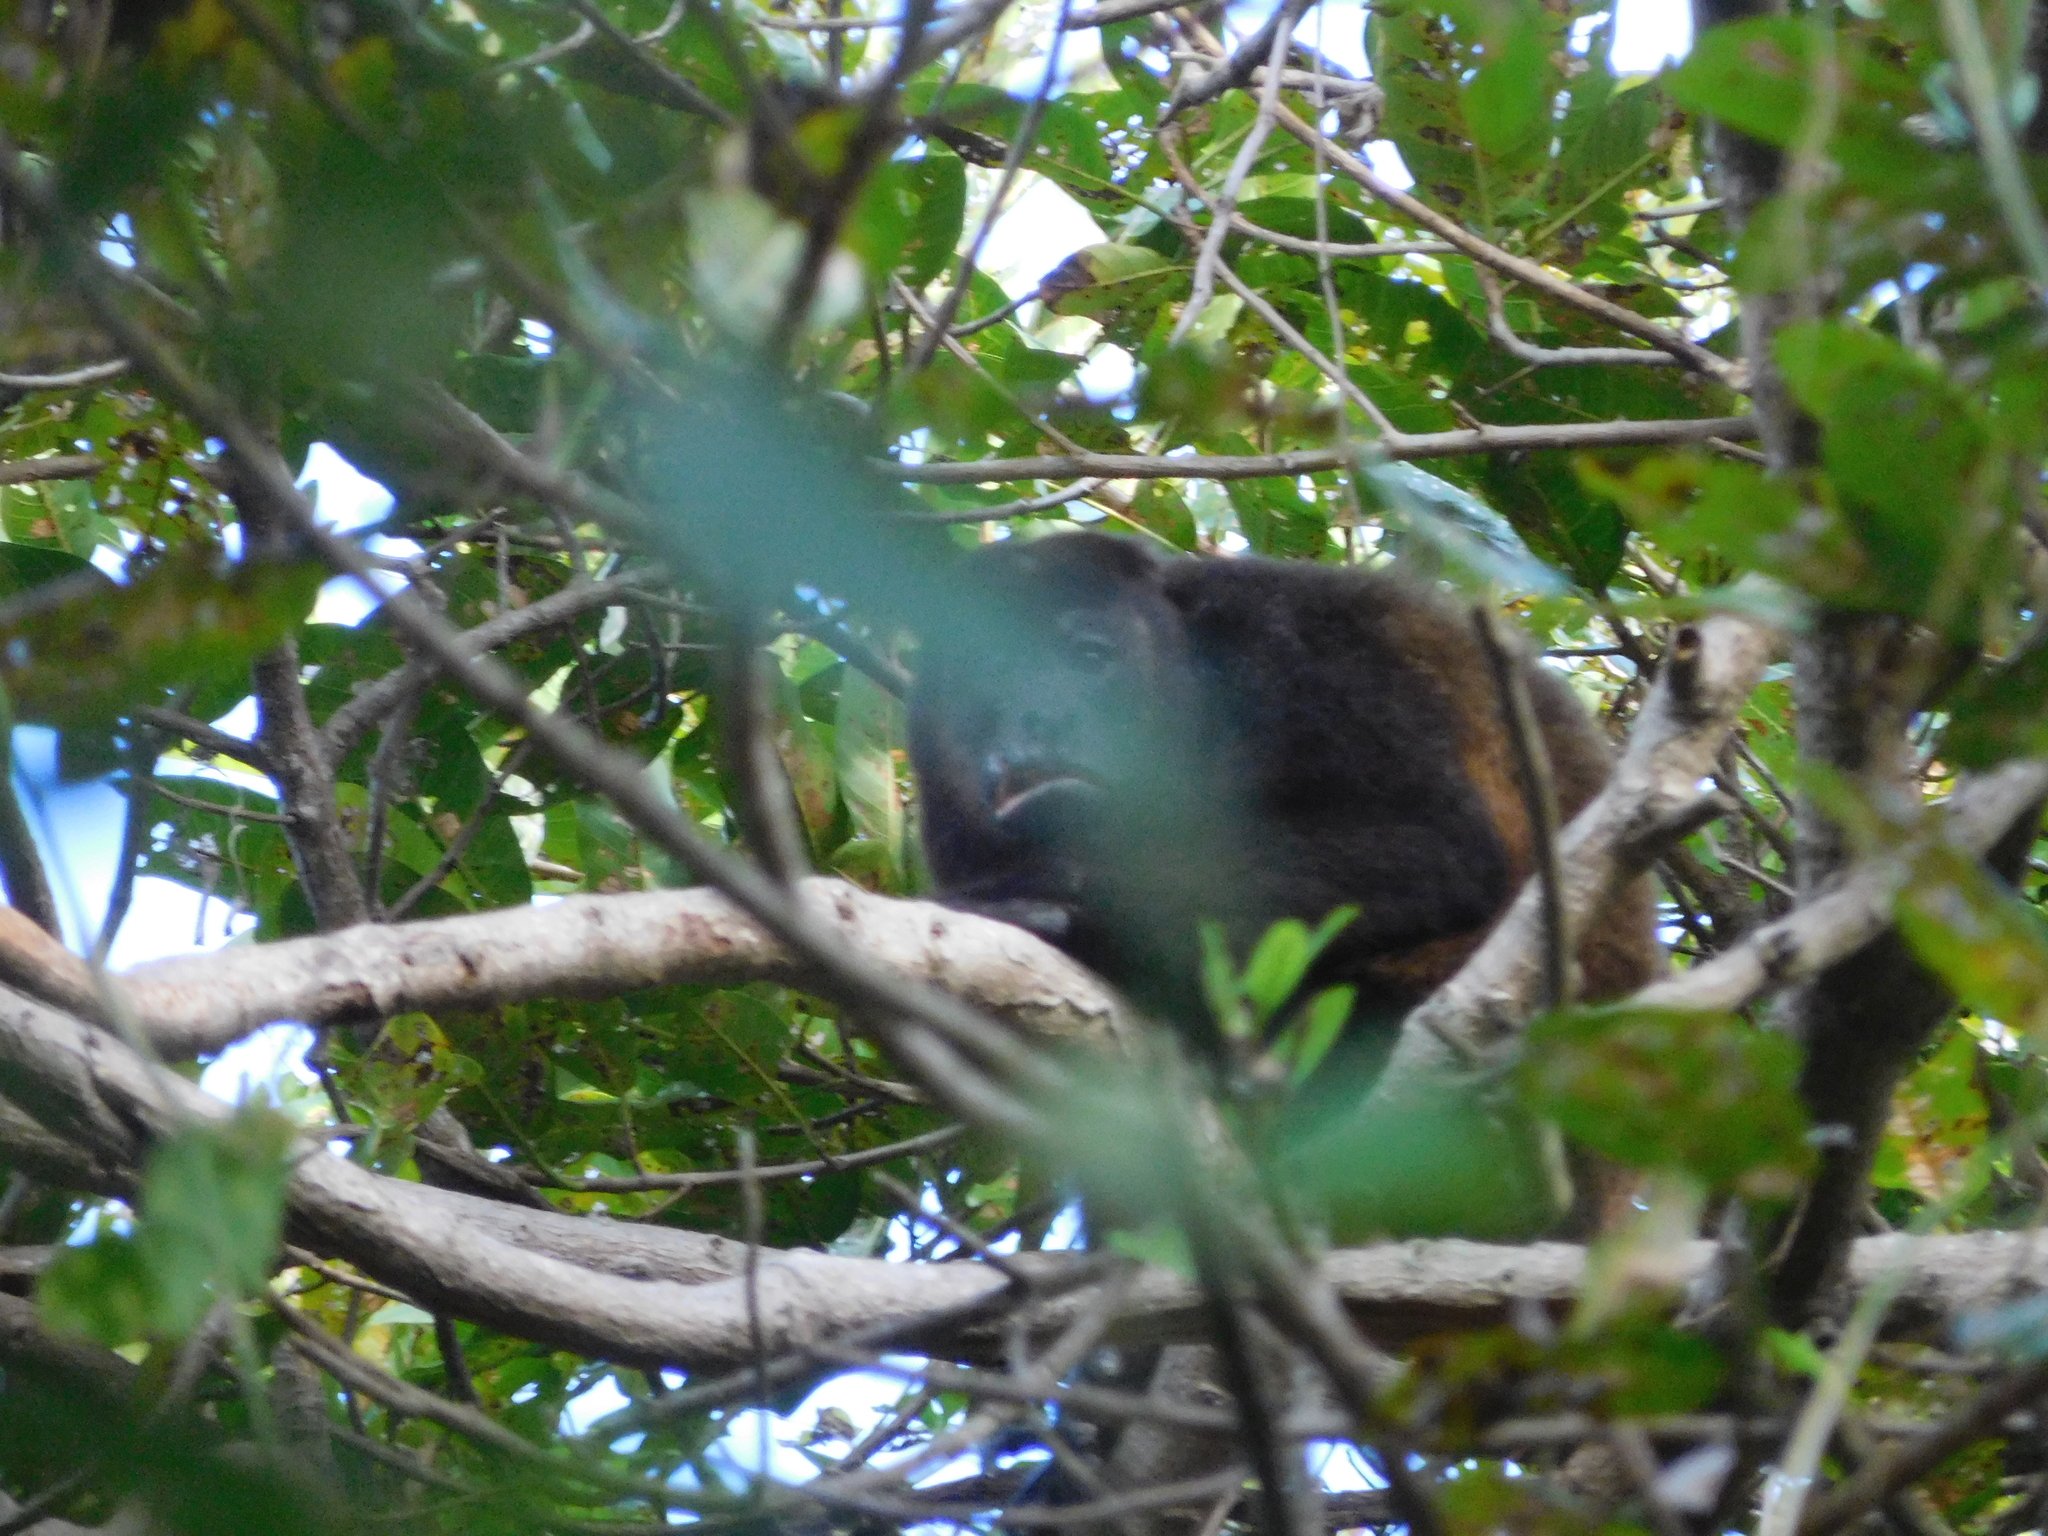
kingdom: Animalia
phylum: Chordata
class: Mammalia
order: Primates
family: Atelidae
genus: Alouatta
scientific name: Alouatta palliata
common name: Mantled howler
